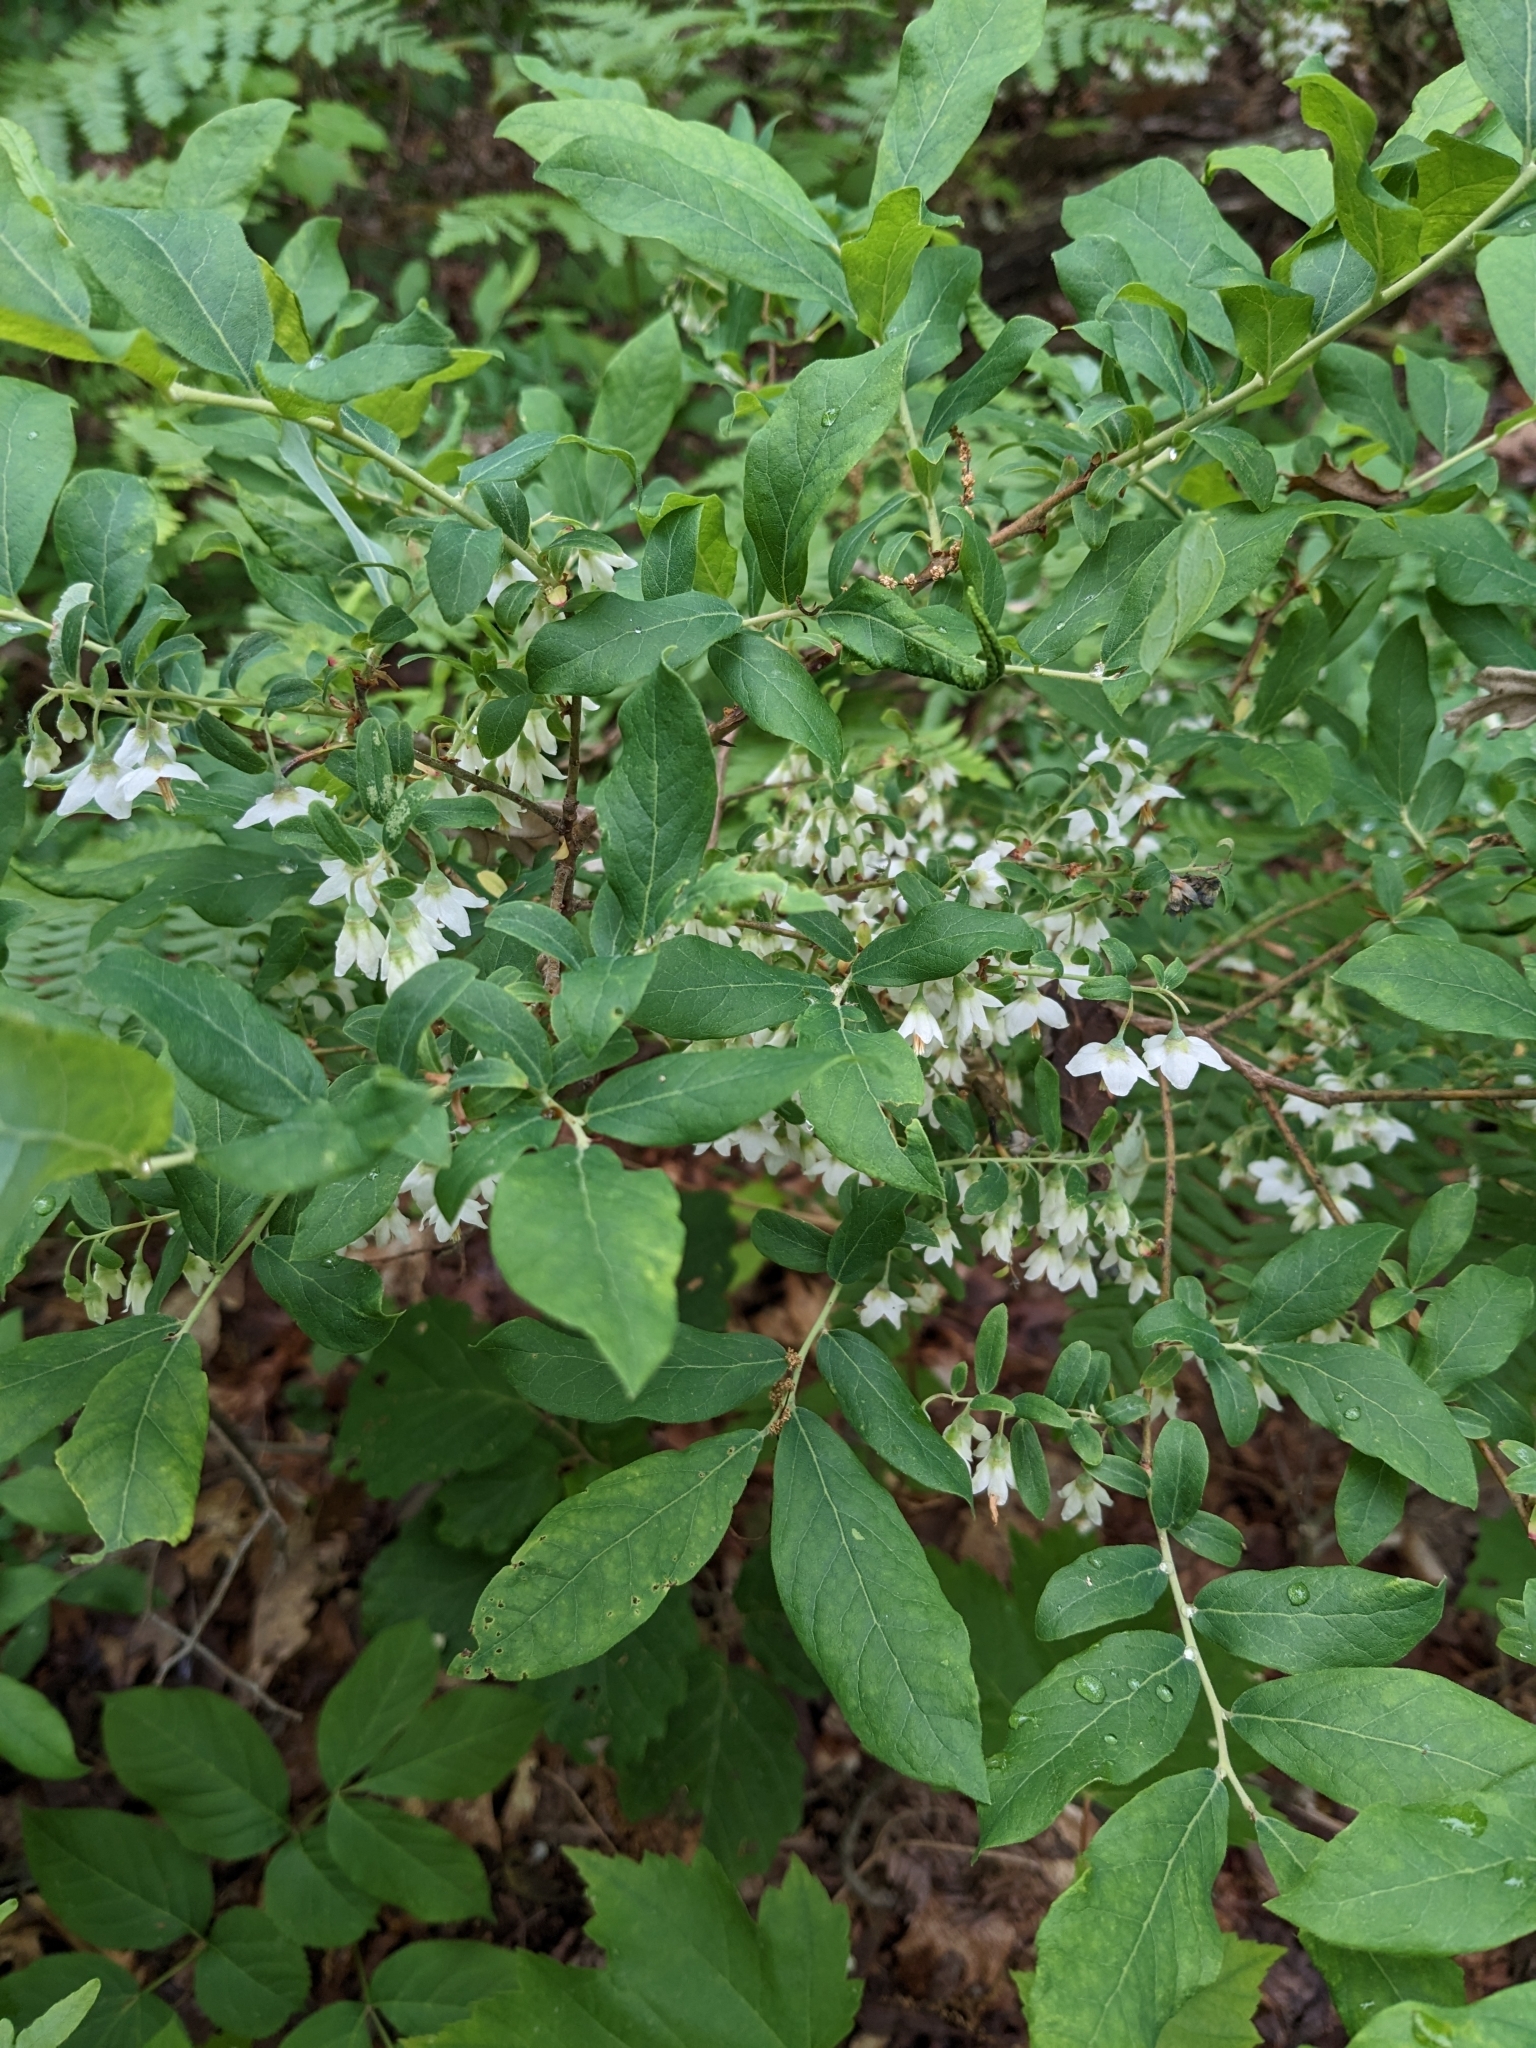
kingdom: Plantae
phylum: Tracheophyta
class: Magnoliopsida
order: Ericales
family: Ericaceae
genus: Vaccinium
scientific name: Vaccinium stamineum
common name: Deerberry
